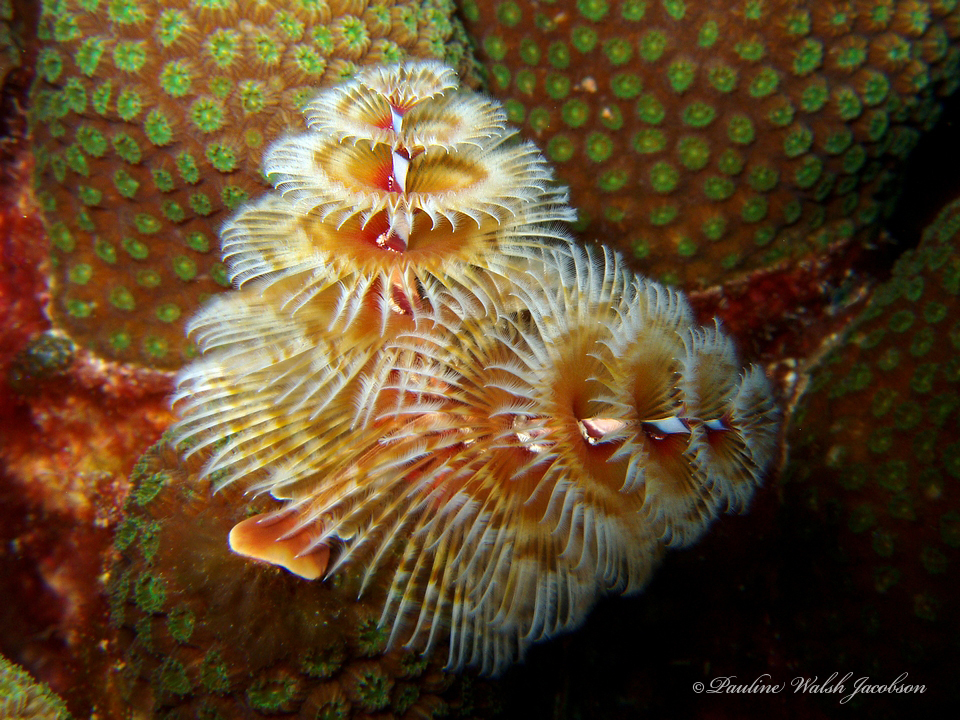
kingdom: Animalia
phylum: Annelida
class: Polychaeta
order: Sabellida
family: Serpulidae
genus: Spirobranchus
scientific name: Spirobranchus giganteus
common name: Christmas tree worm
